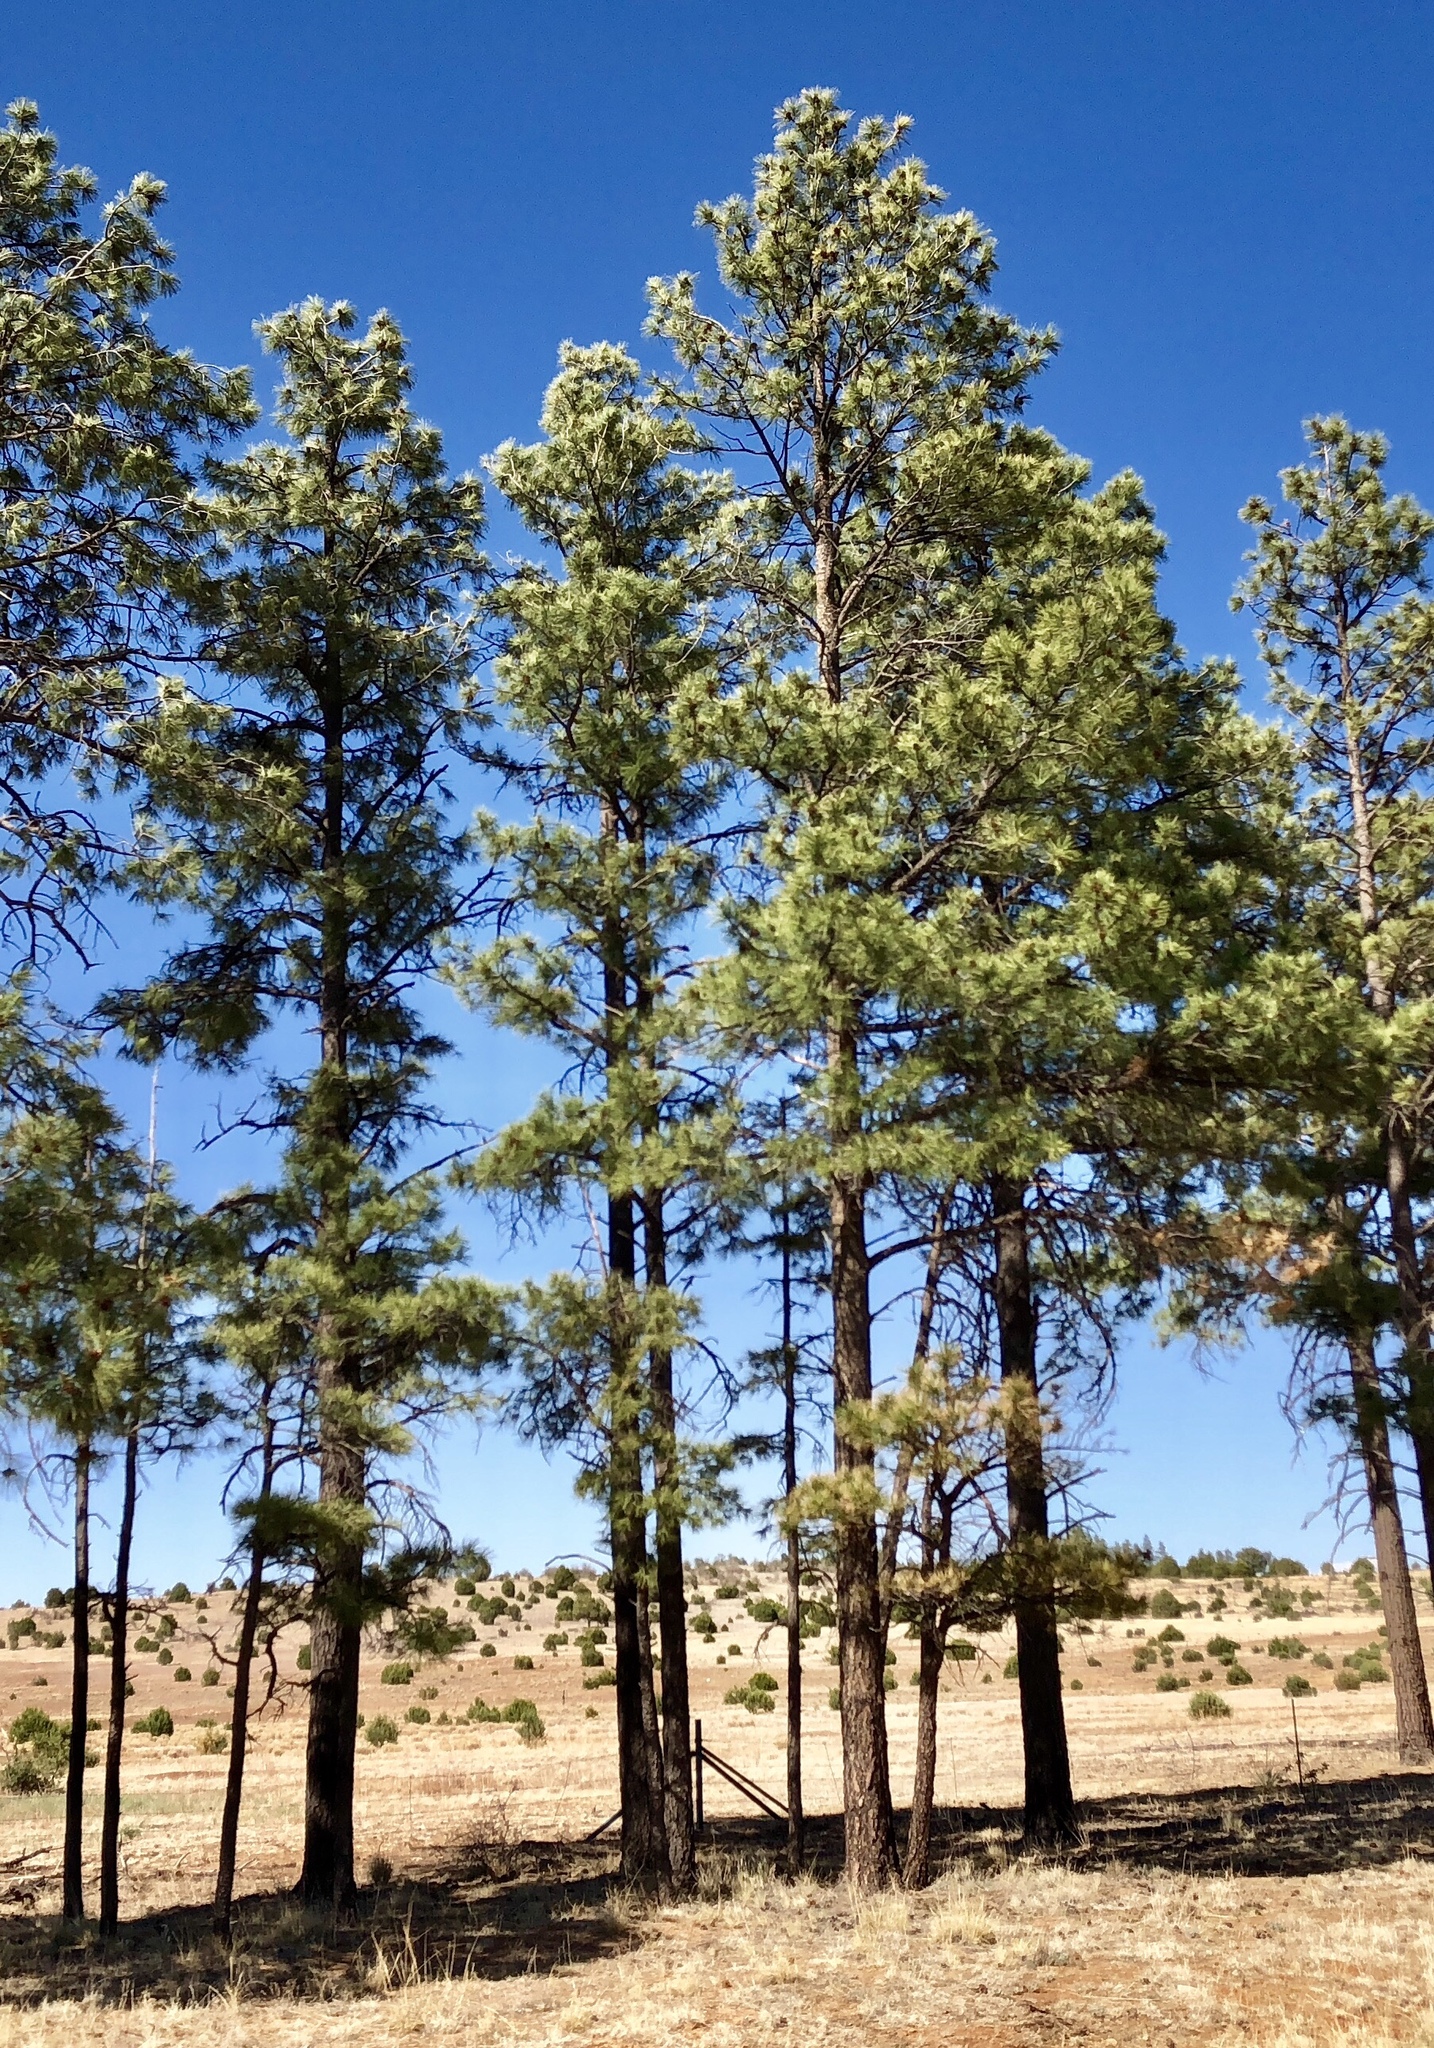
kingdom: Plantae
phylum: Tracheophyta
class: Pinopsida
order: Pinales
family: Pinaceae
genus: Pinus
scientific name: Pinus ponderosa
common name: Western yellow-pine
